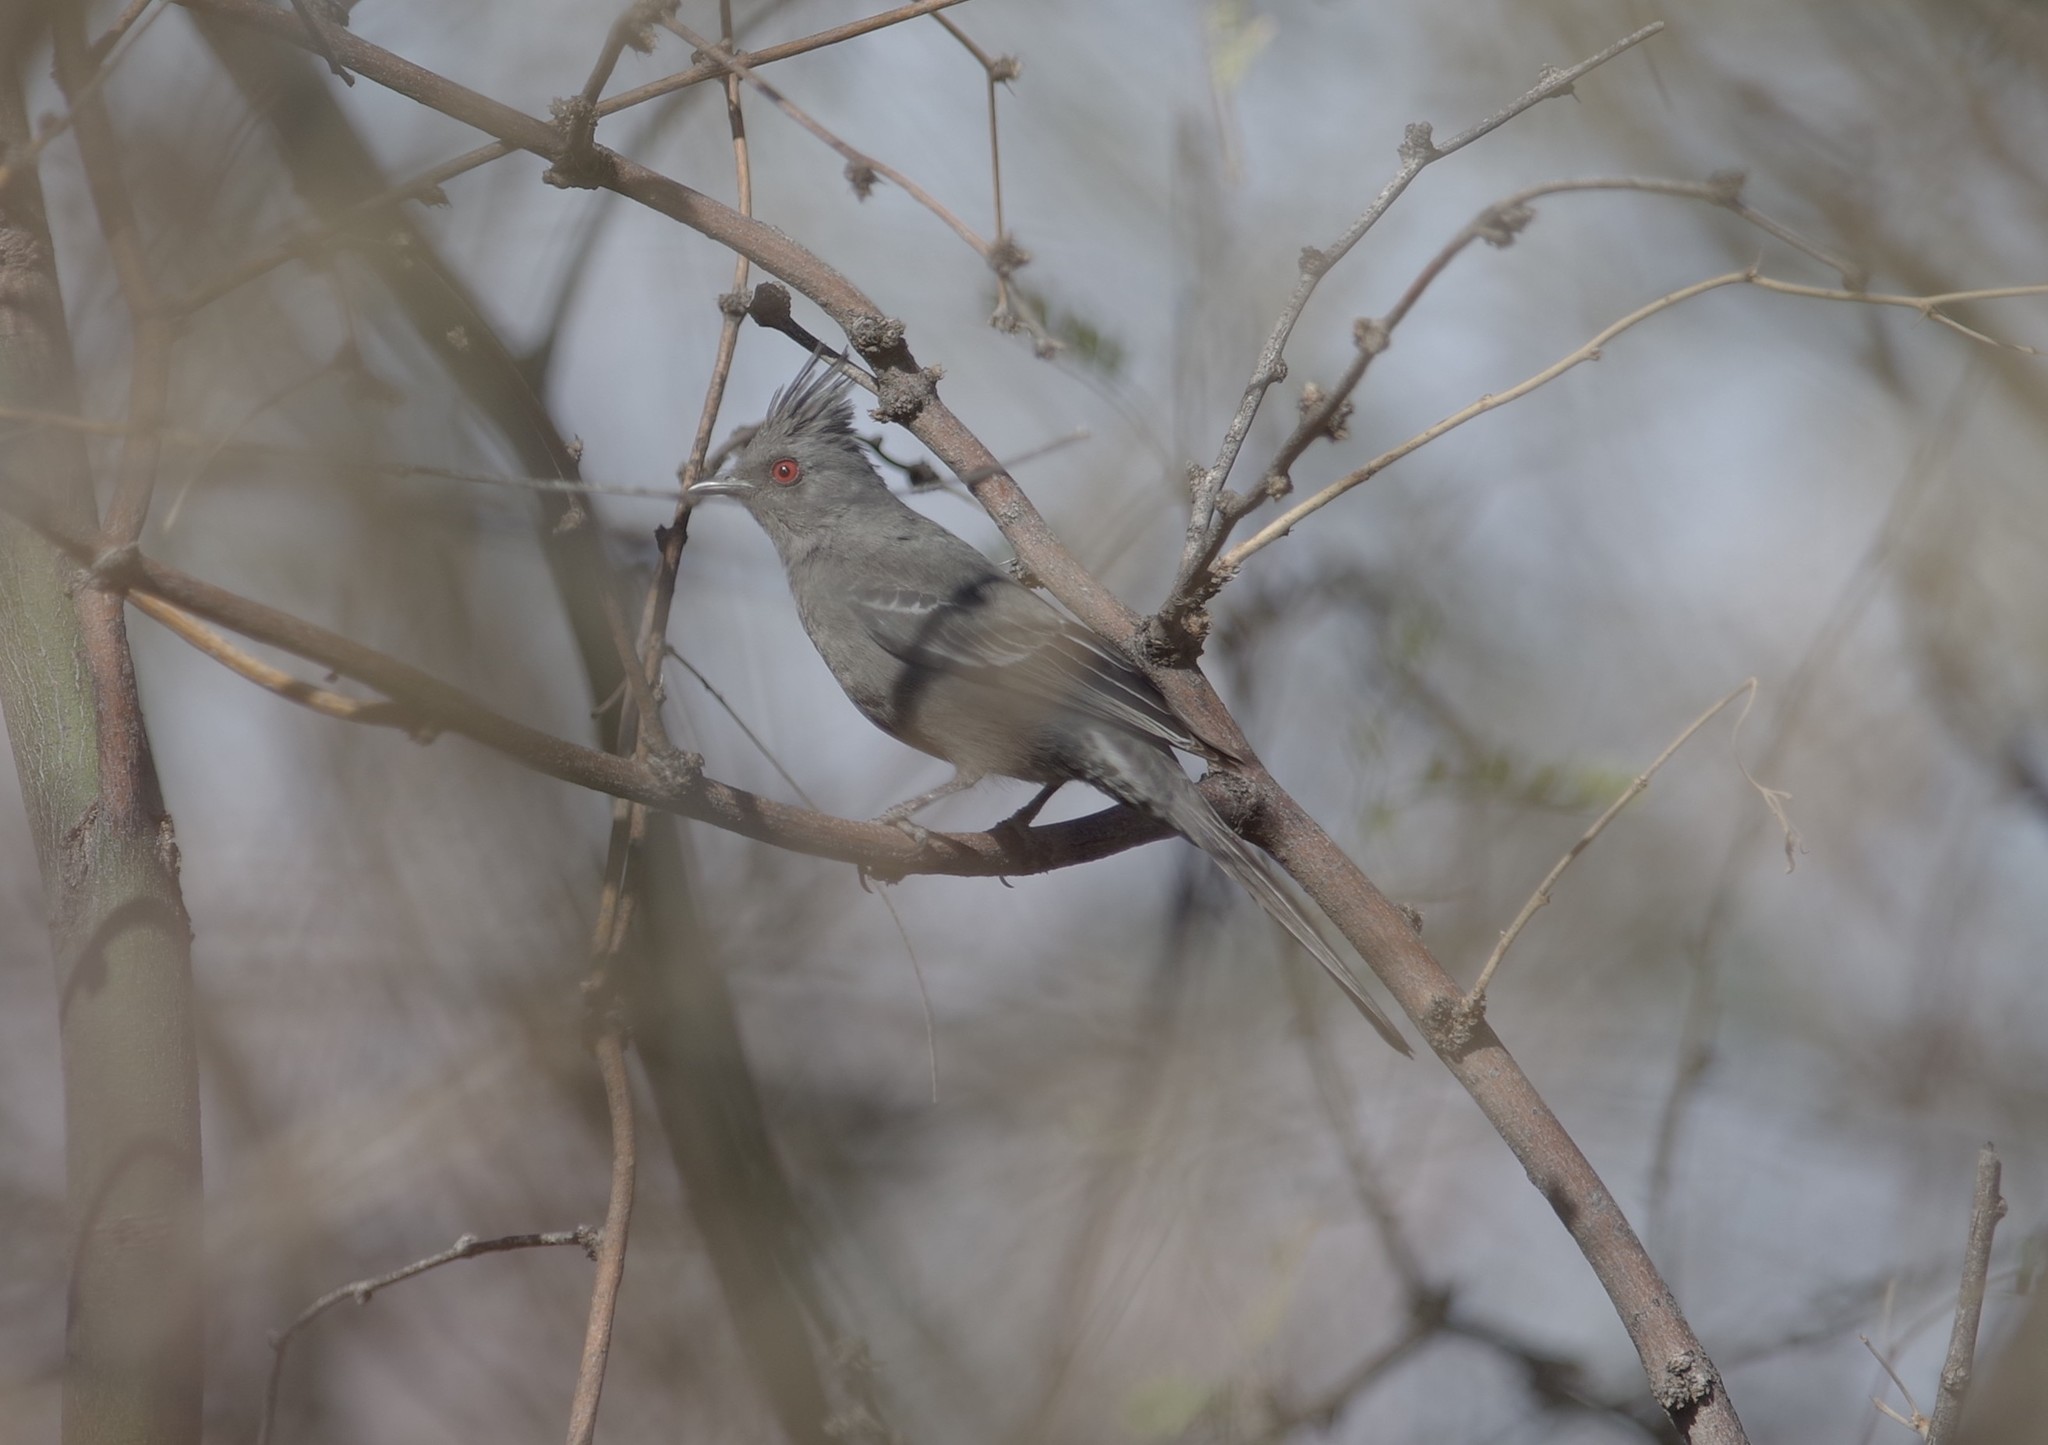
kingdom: Animalia
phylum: Chordata
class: Aves
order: Passeriformes
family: Ptilogonatidae
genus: Phainopepla
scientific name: Phainopepla nitens
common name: Phainopepla
